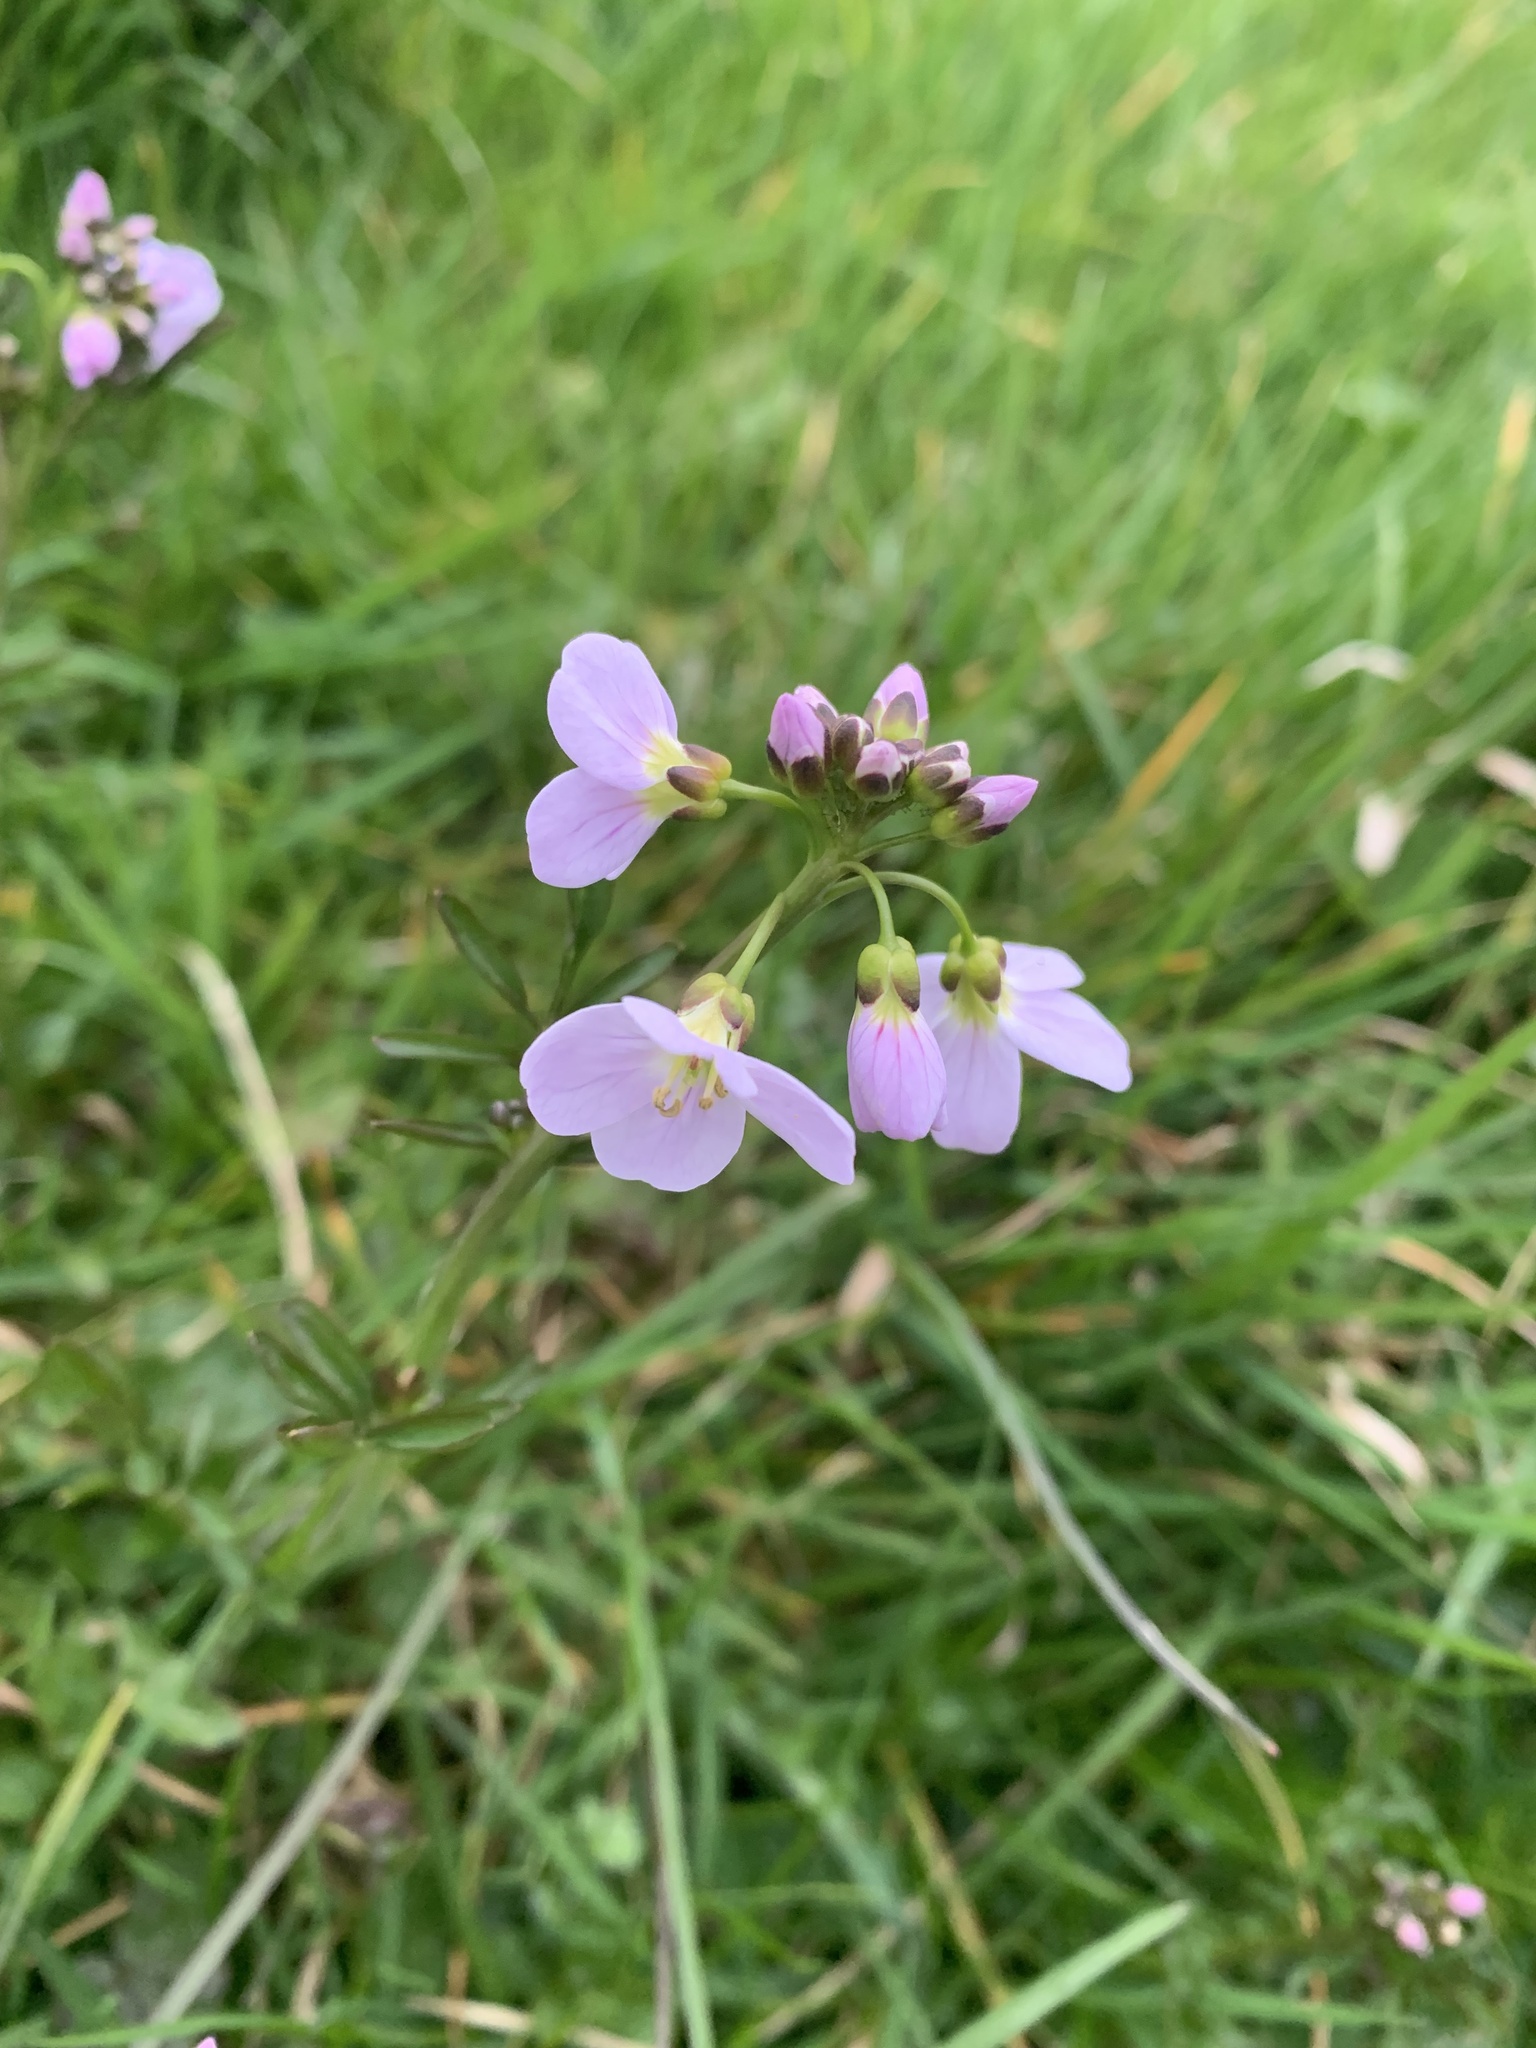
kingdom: Plantae
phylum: Tracheophyta
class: Magnoliopsida
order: Brassicales
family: Brassicaceae
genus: Cardamine
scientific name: Cardamine pratensis
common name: Cuckoo flower
